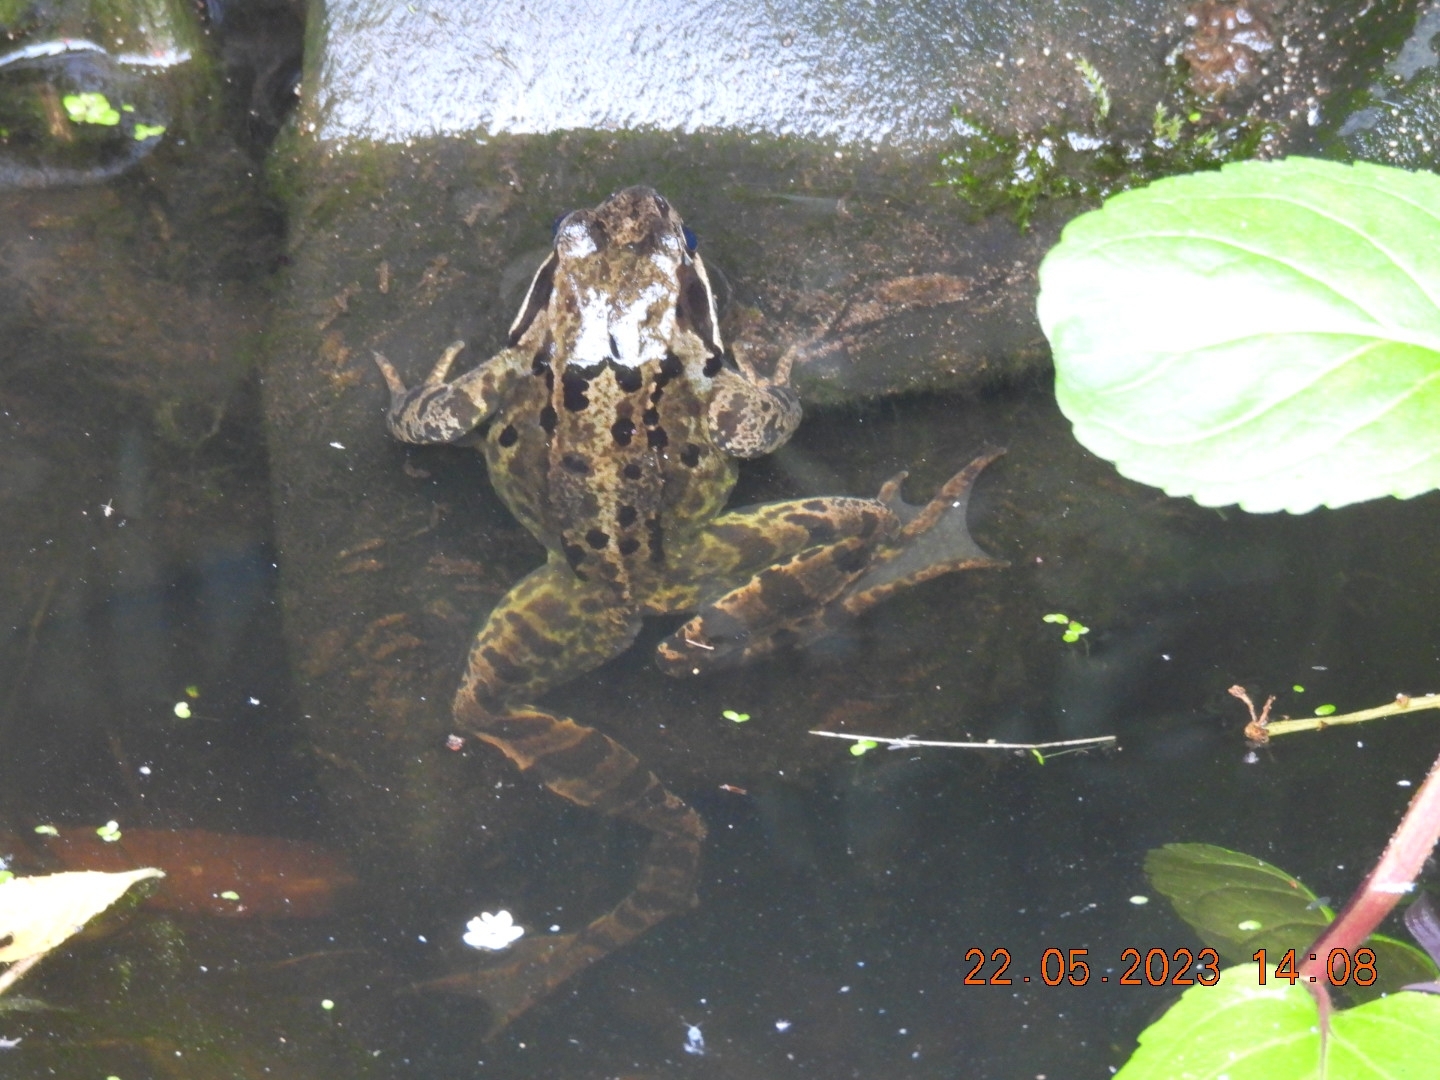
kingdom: Animalia
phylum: Chordata
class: Amphibia
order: Anura
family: Ranidae
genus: Rana
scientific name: Rana temporaria
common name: Common frog
